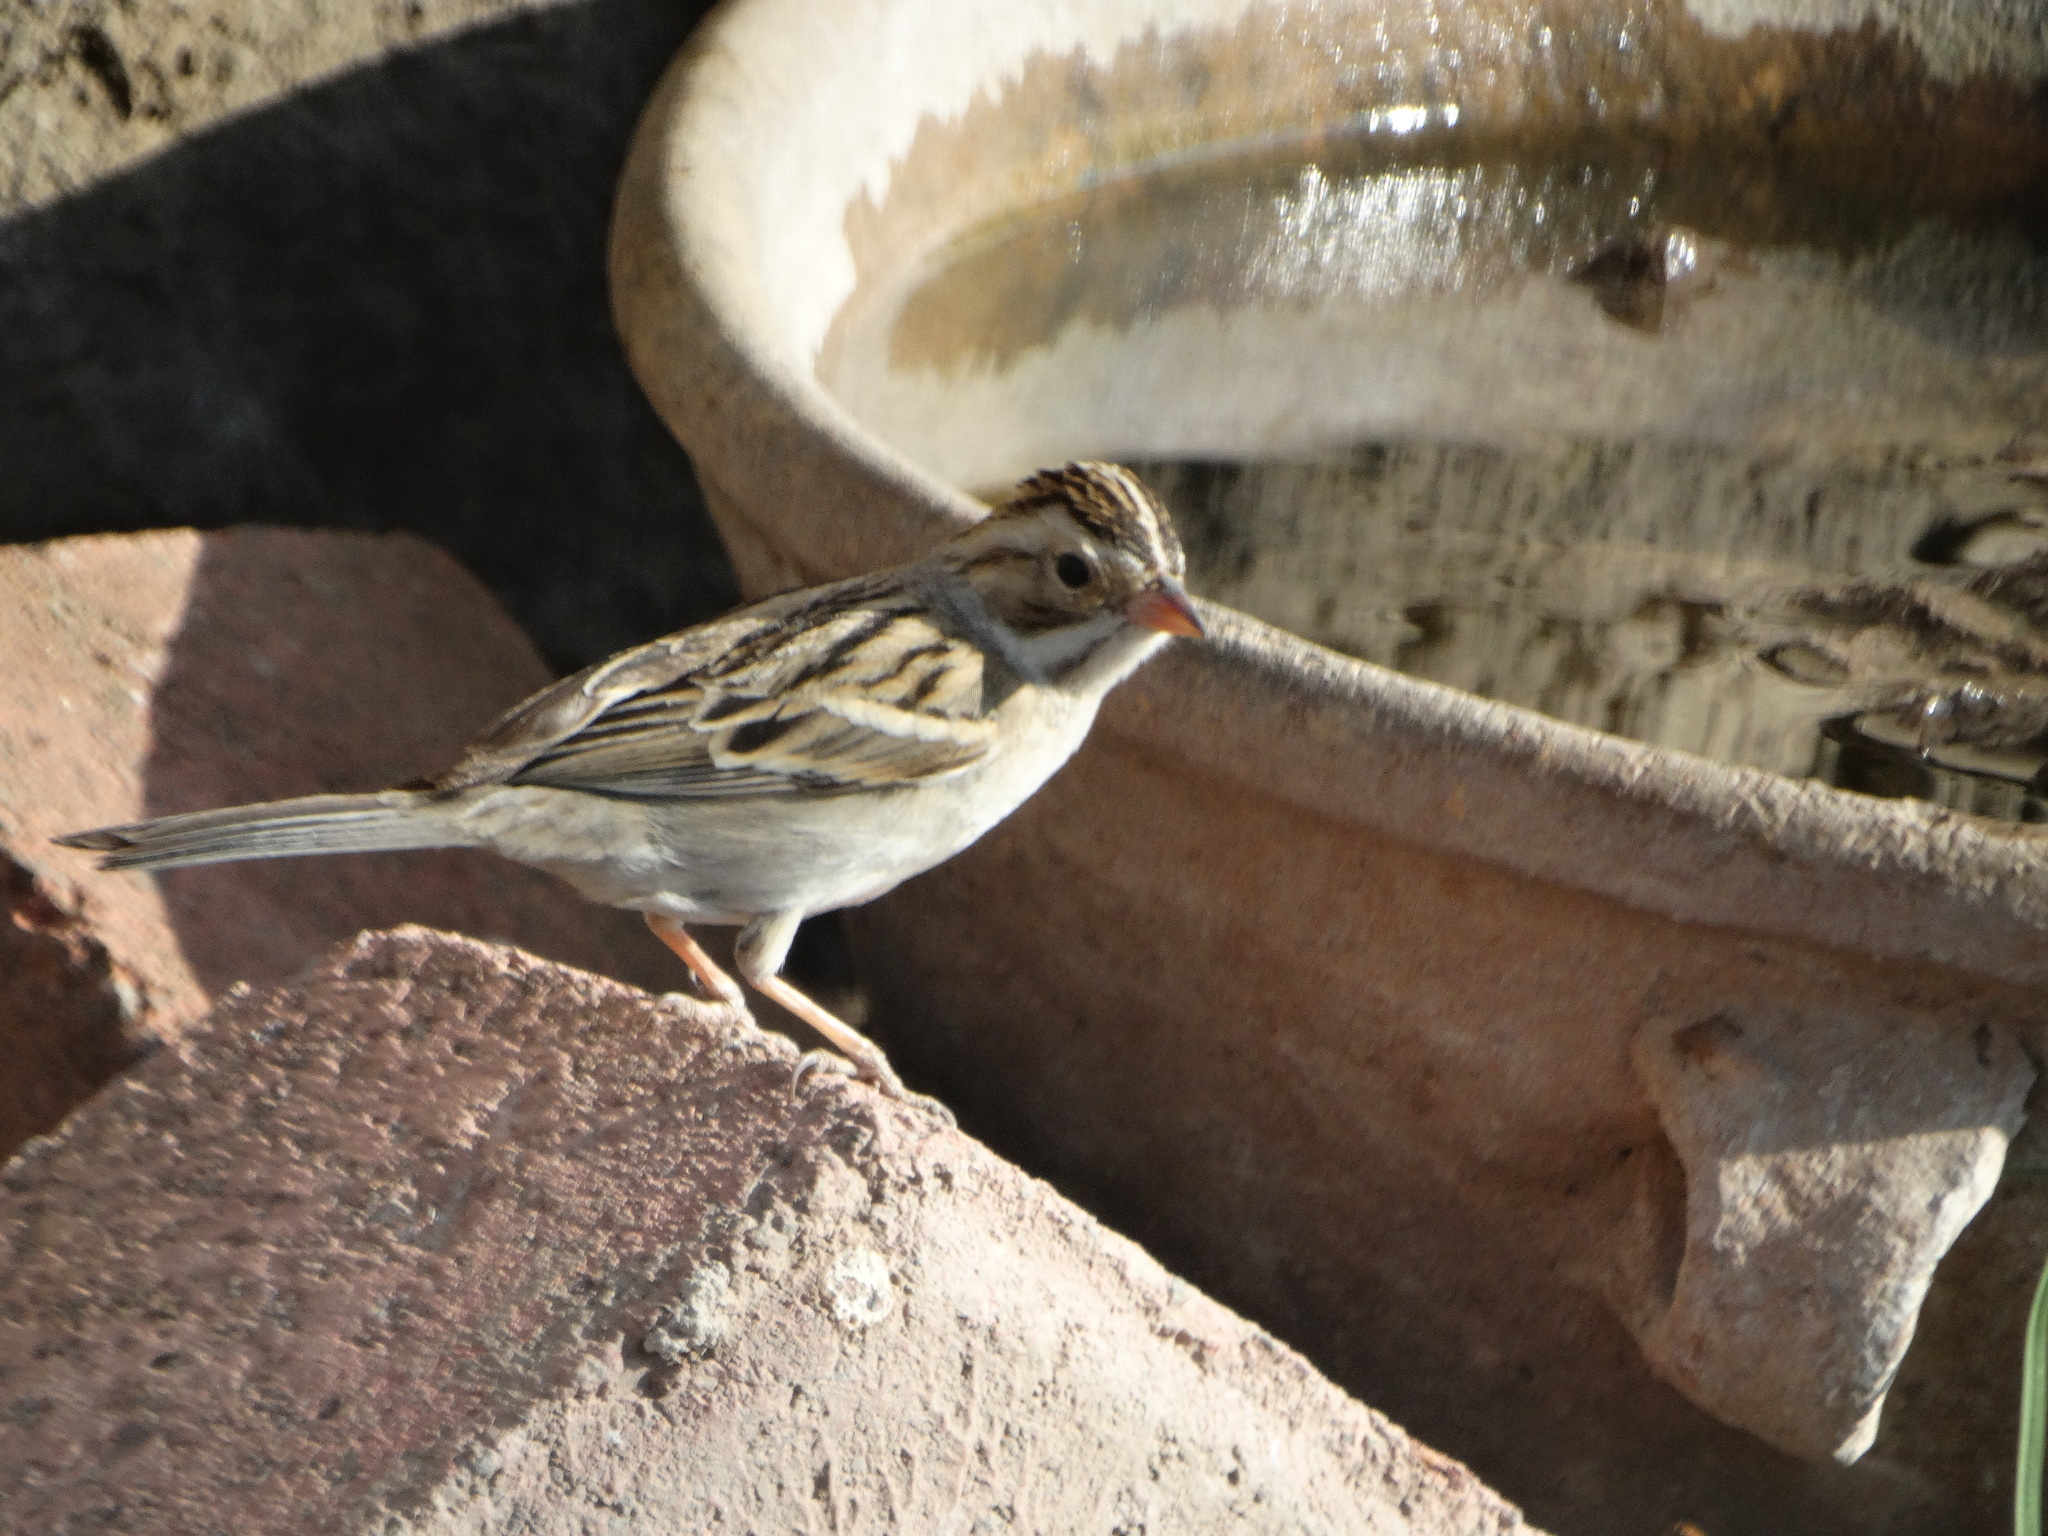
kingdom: Animalia
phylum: Chordata
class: Aves
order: Passeriformes
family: Passerellidae
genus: Spizella
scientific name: Spizella pallida
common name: Clay-colored sparrow
